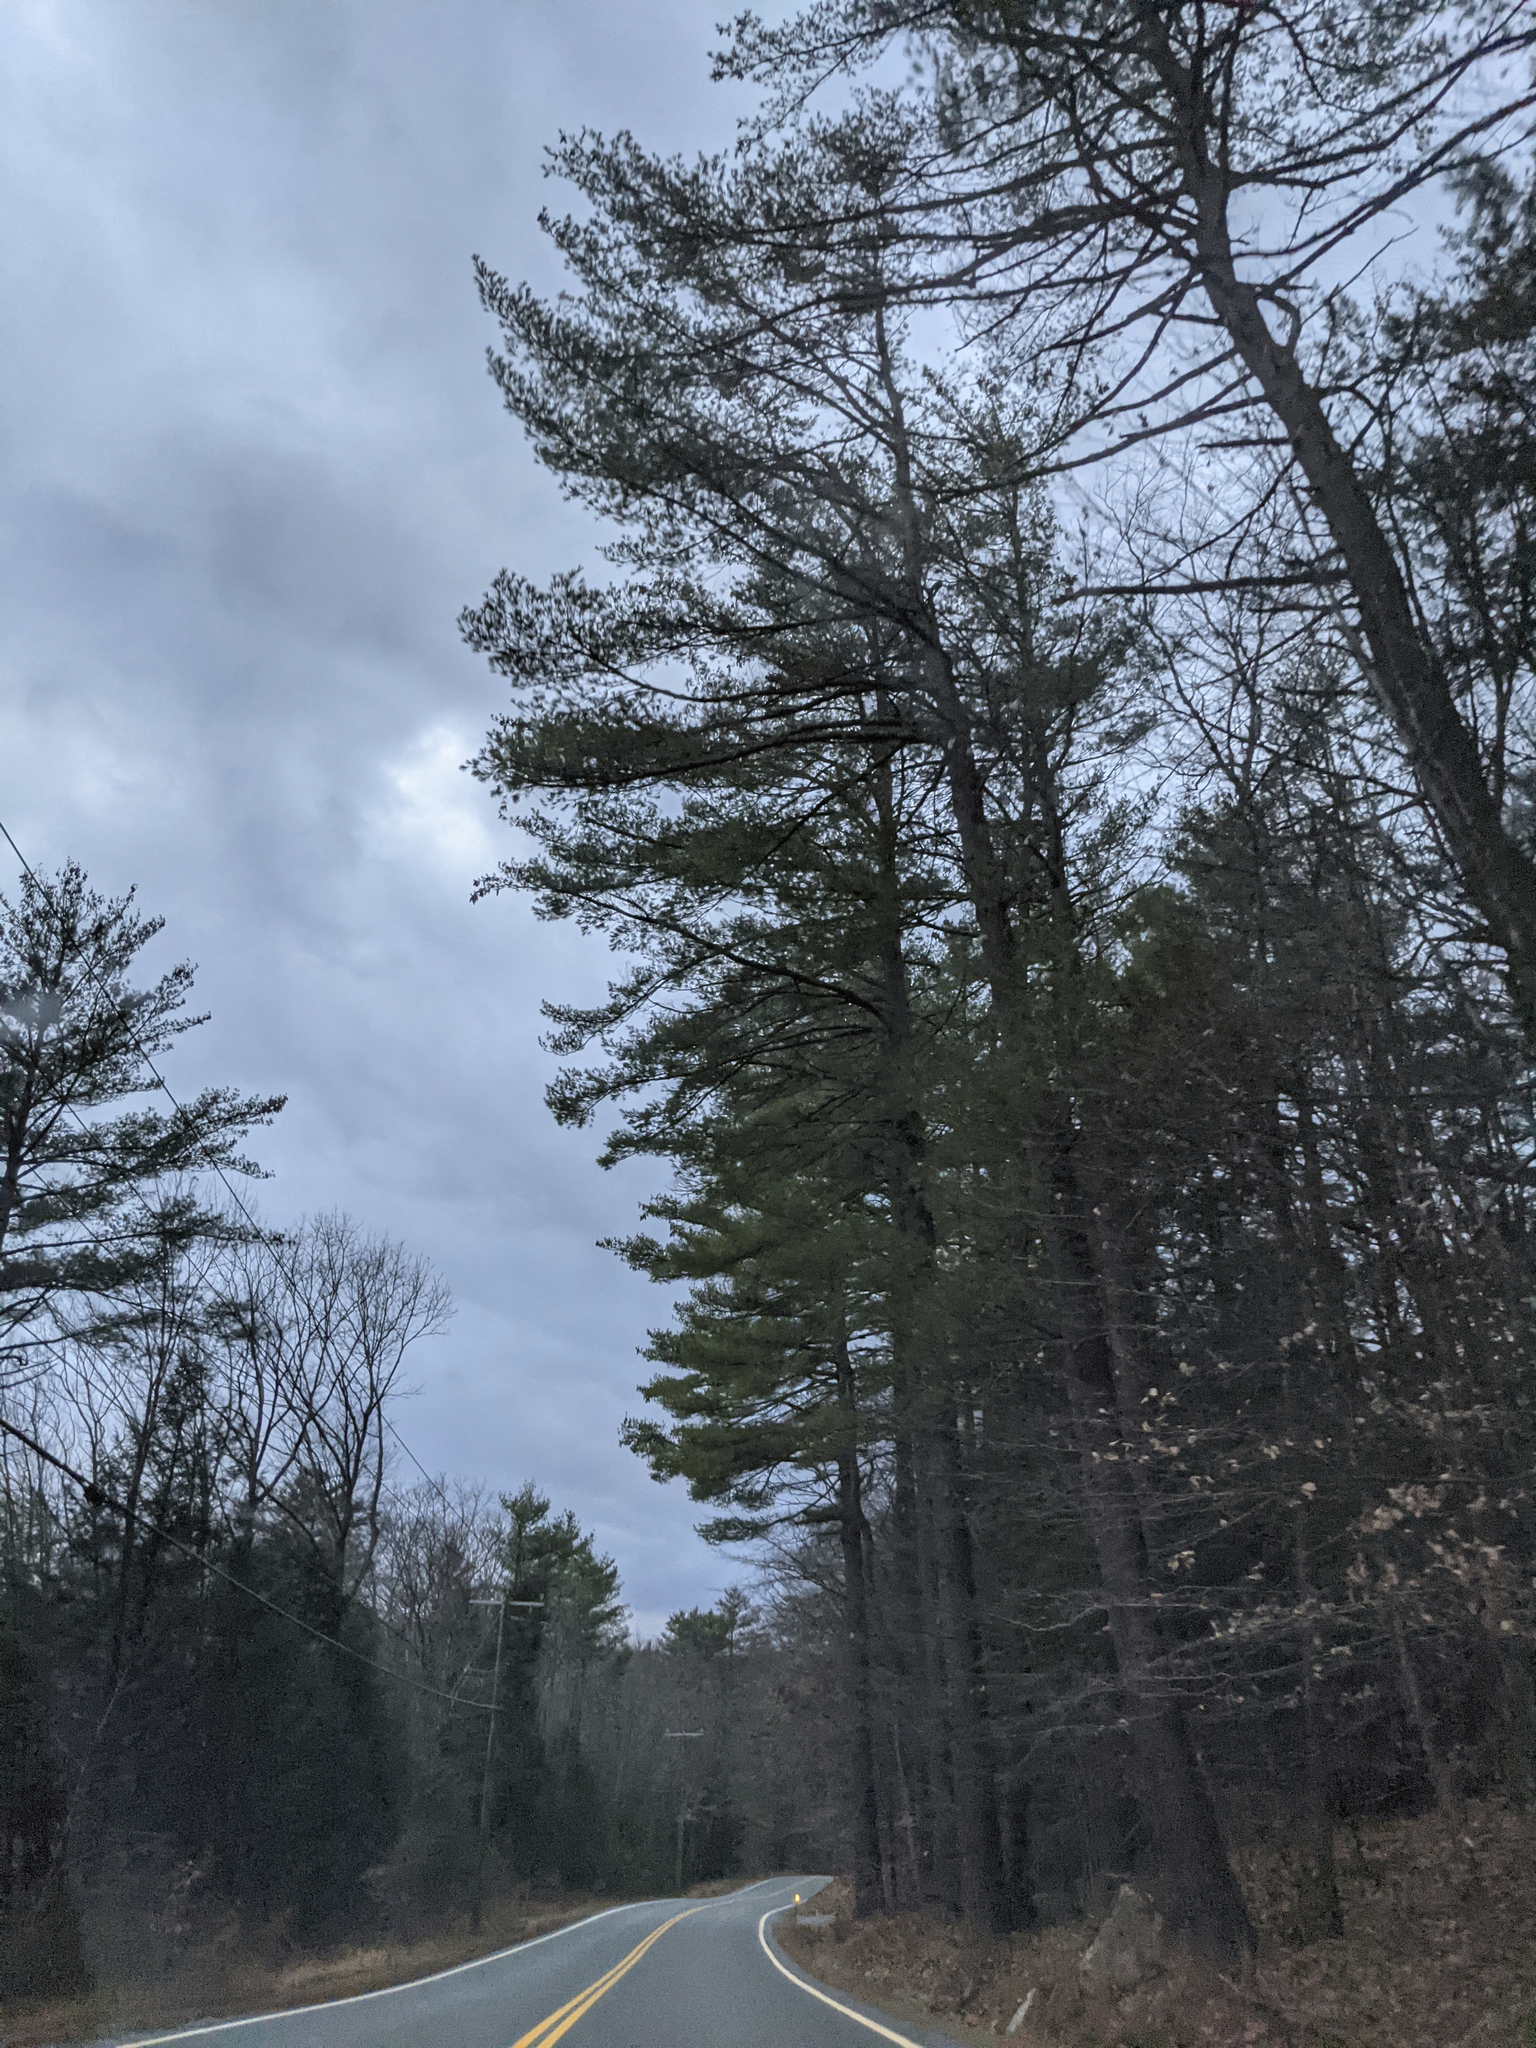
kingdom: Plantae
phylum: Tracheophyta
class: Pinopsida
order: Pinales
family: Pinaceae
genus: Pinus
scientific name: Pinus strobus
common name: Weymouth pine
